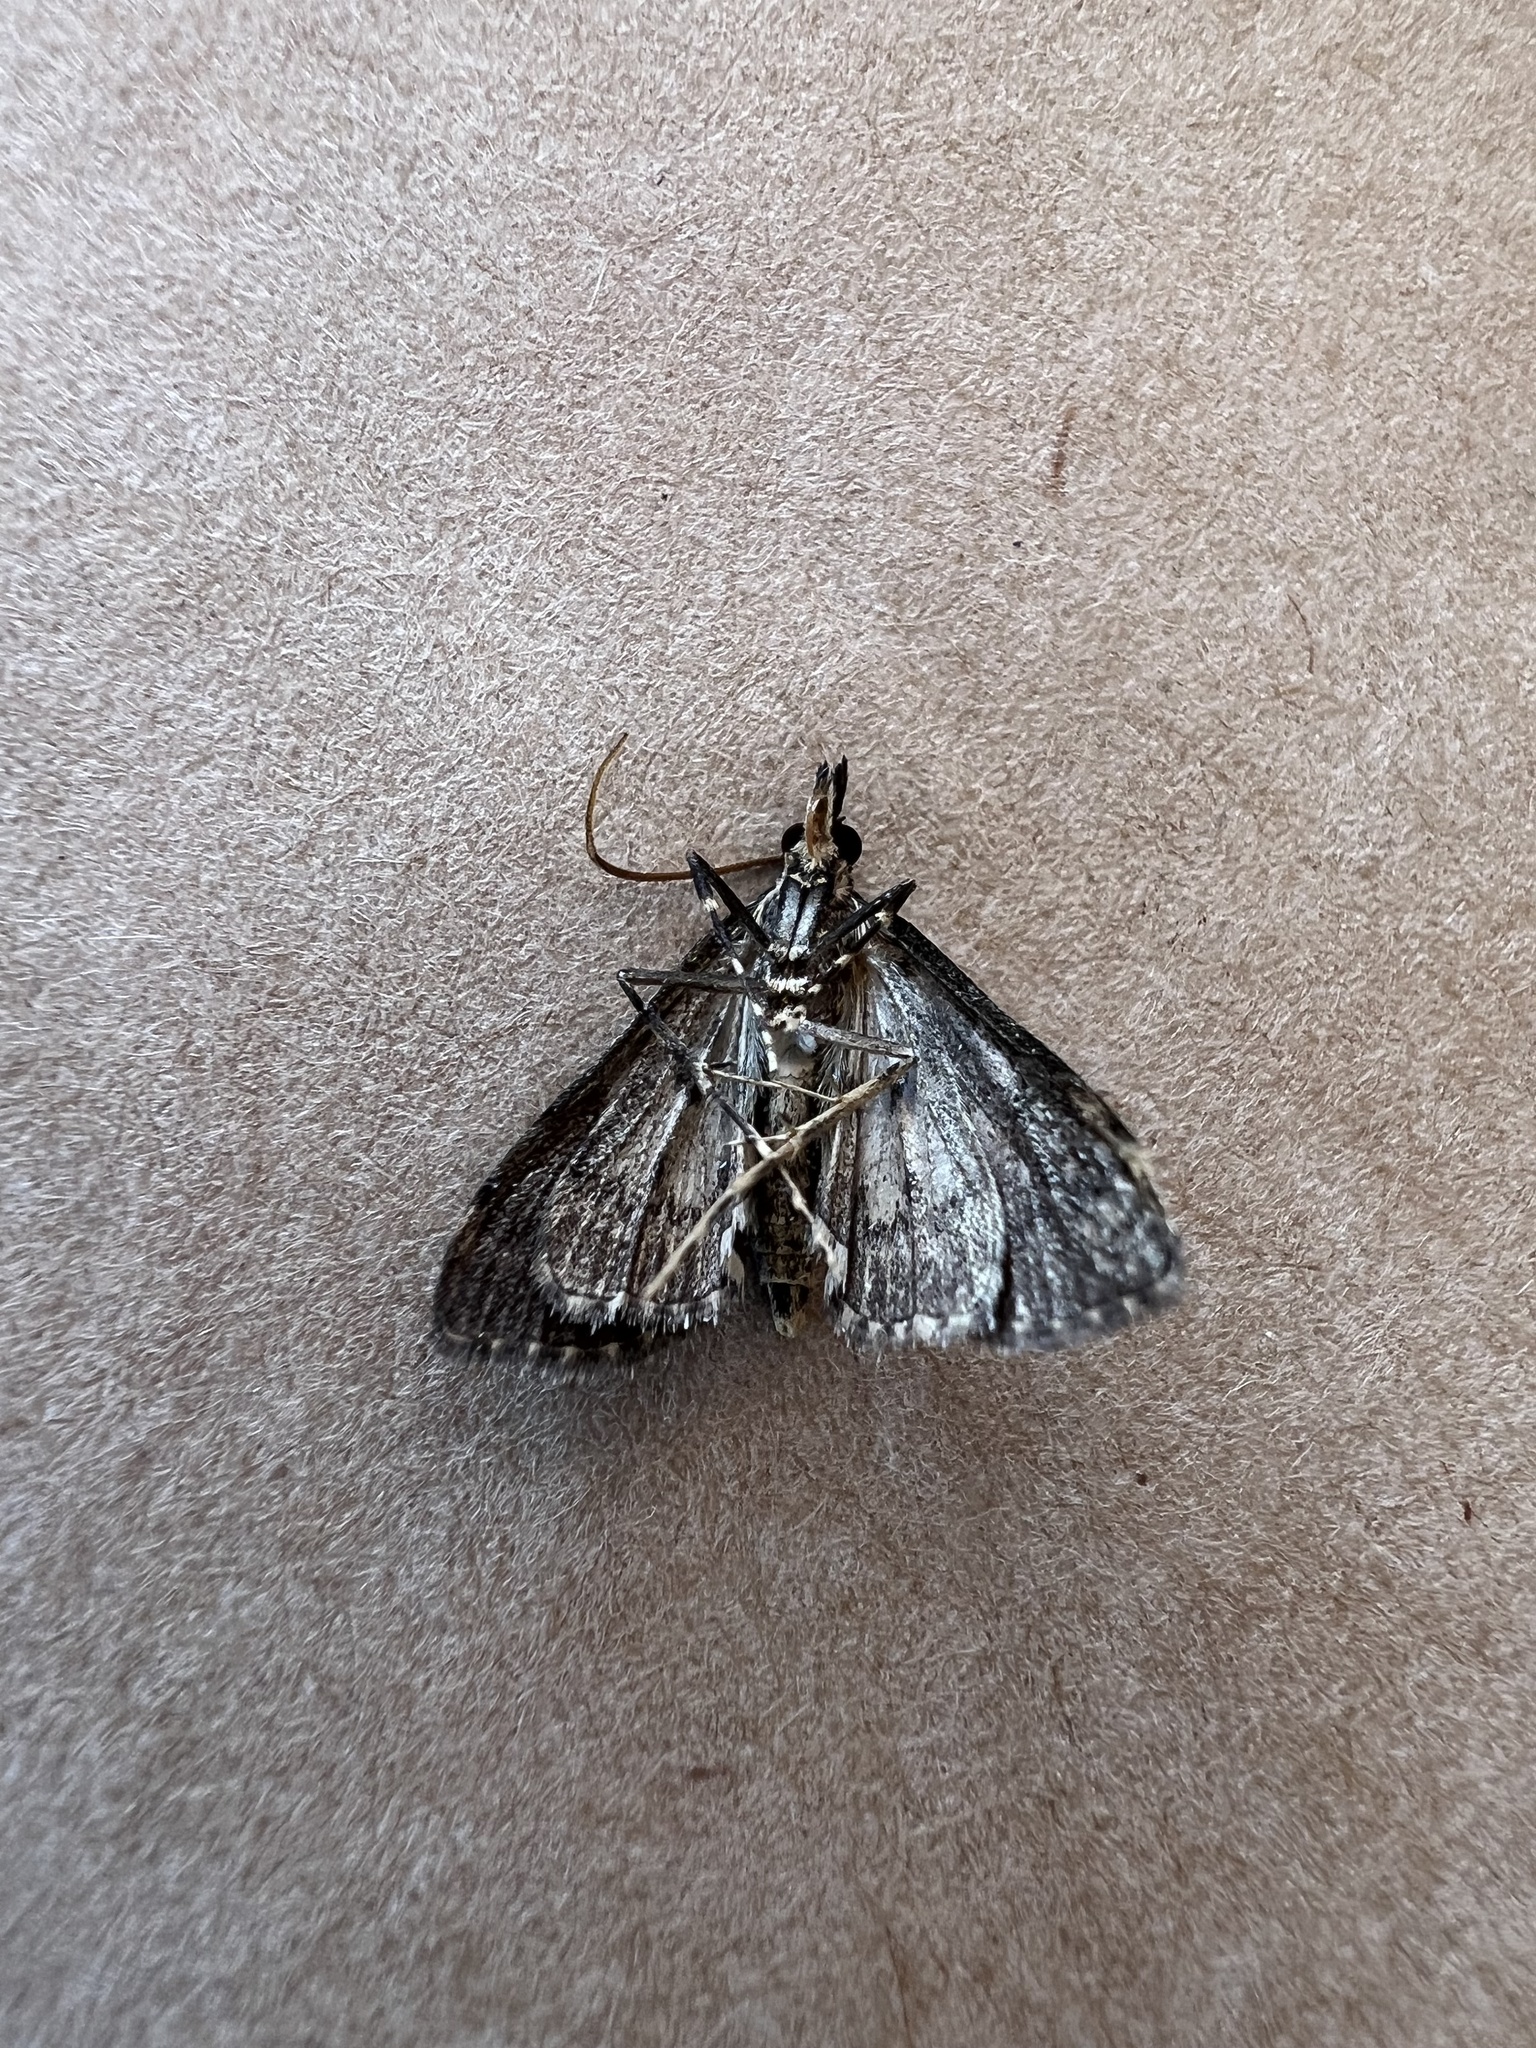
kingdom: Animalia
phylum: Arthropoda
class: Insecta
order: Lepidoptera
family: Crambidae
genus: Loxostege
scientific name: Loxostege Proternia philocapna
